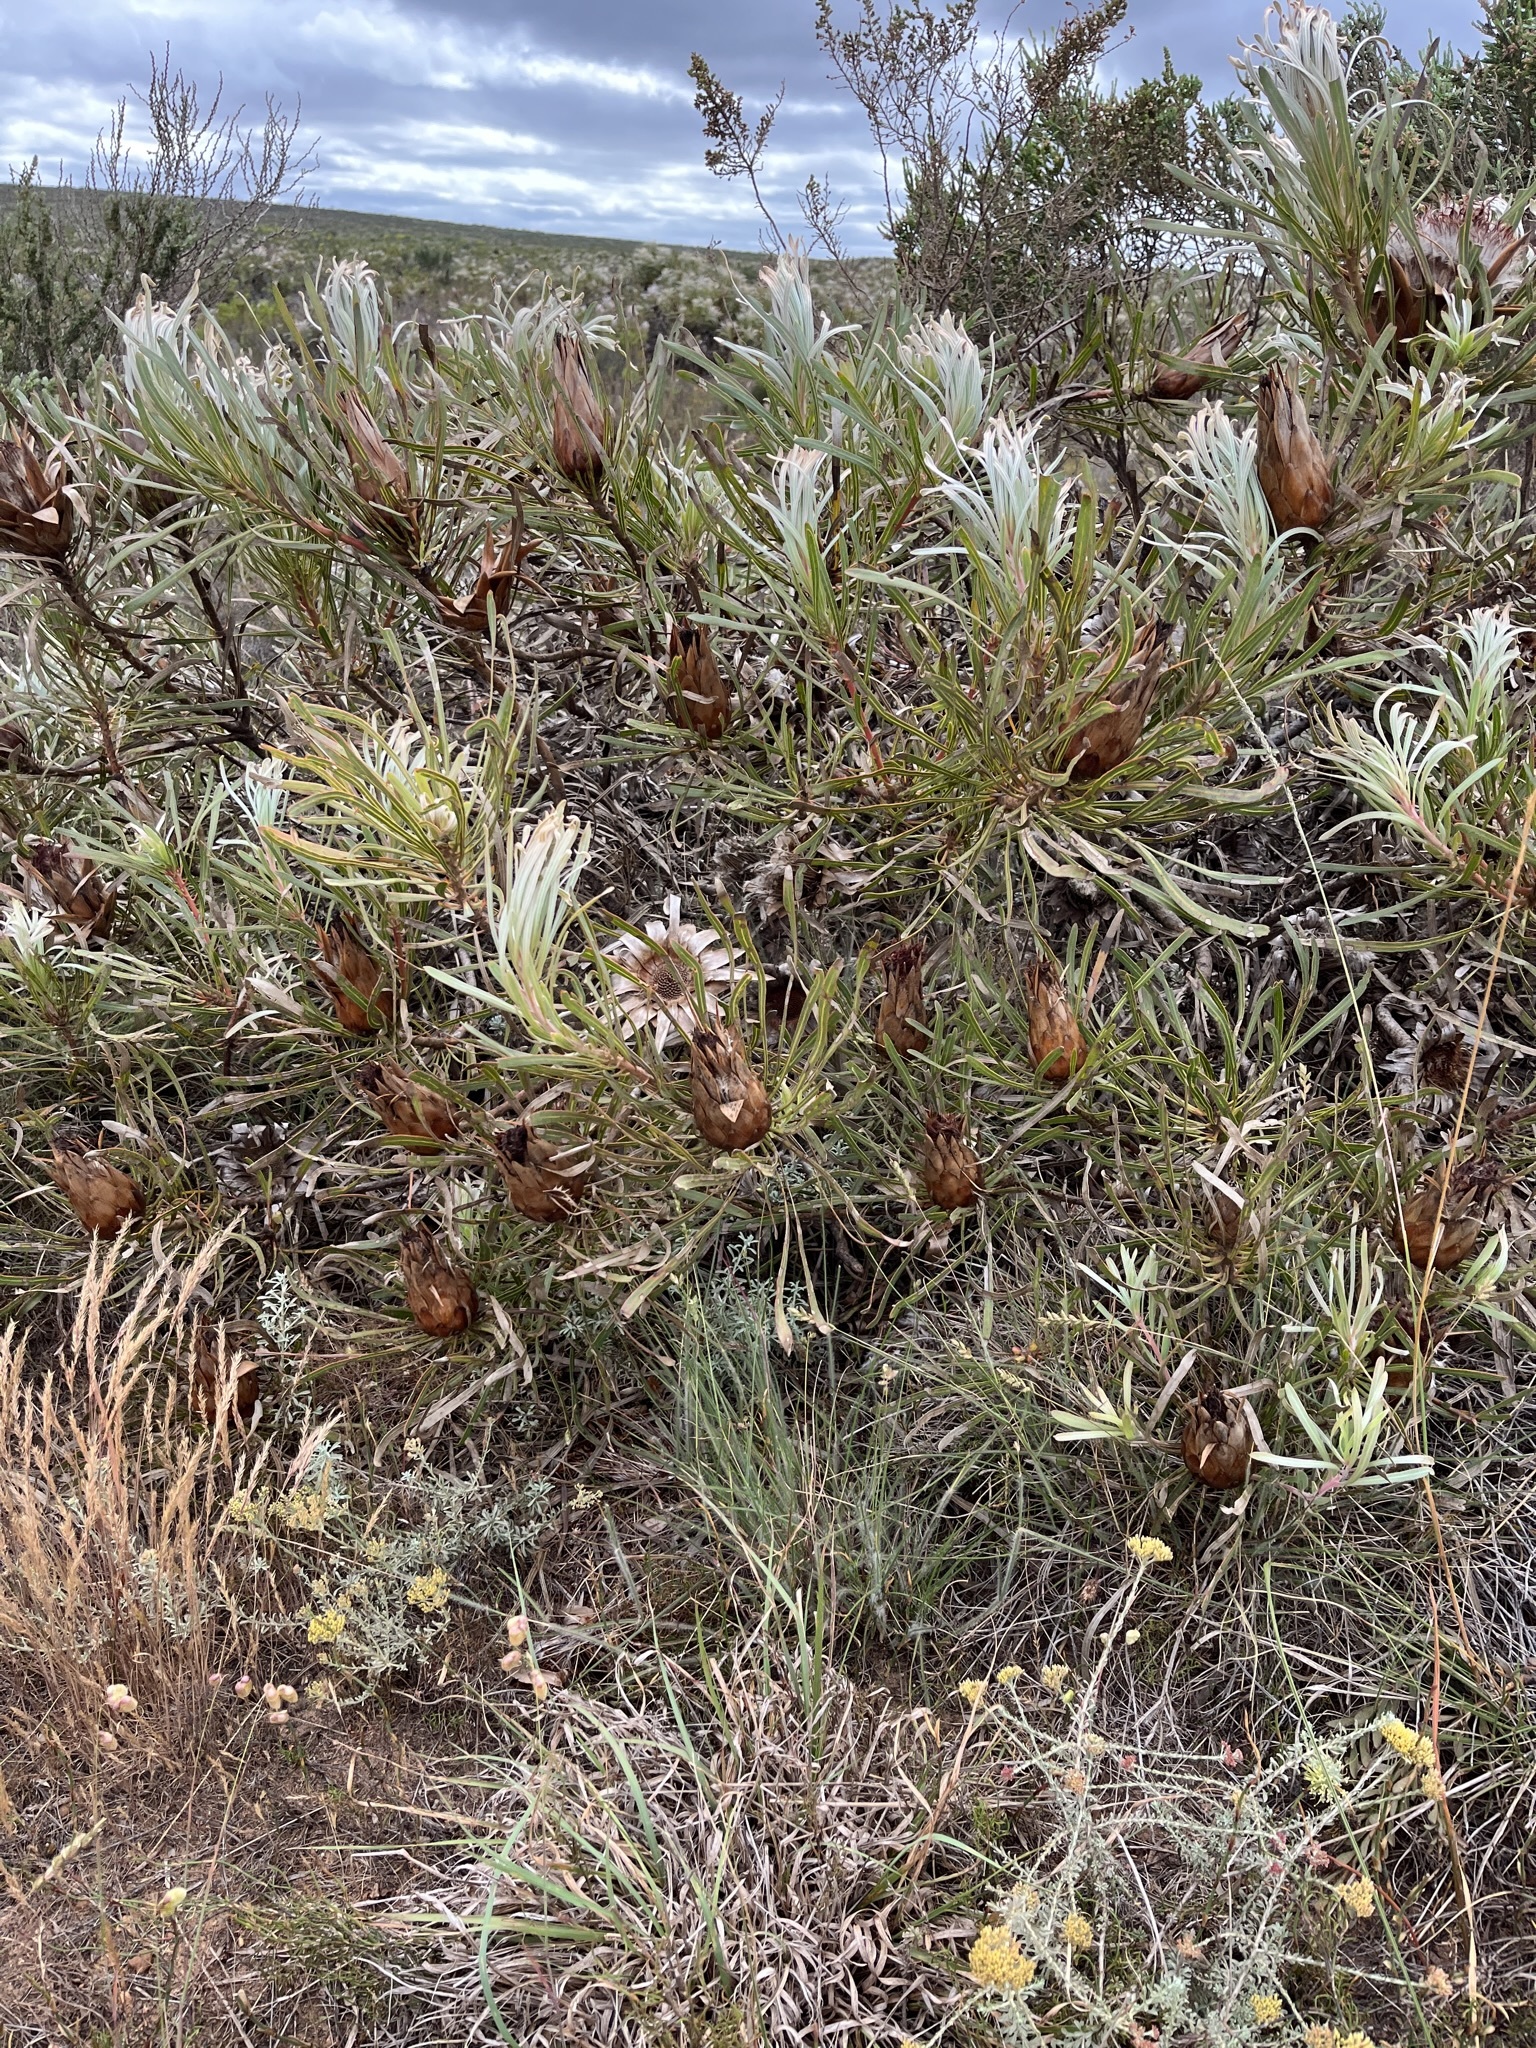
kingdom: Plantae
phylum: Tracheophyta
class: Magnoliopsida
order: Proteales
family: Proteaceae
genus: Protea
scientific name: Protea longifolia
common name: Long-leaf sugarbush
